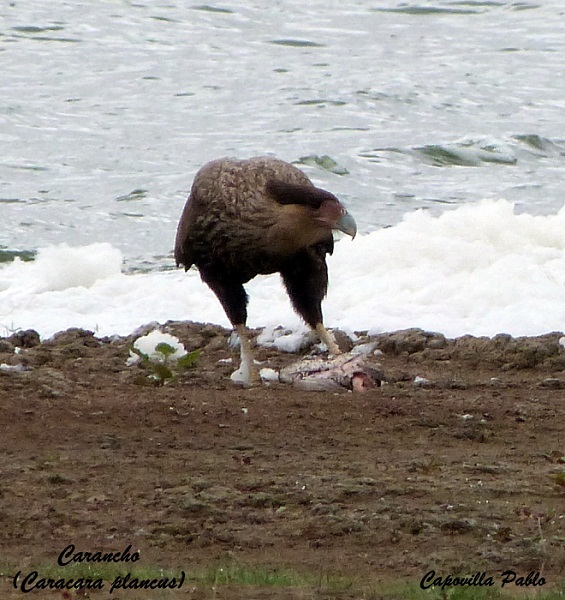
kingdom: Animalia
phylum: Chordata
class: Aves
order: Falconiformes
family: Falconidae
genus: Caracara
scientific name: Caracara plancus
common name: Southern caracara
